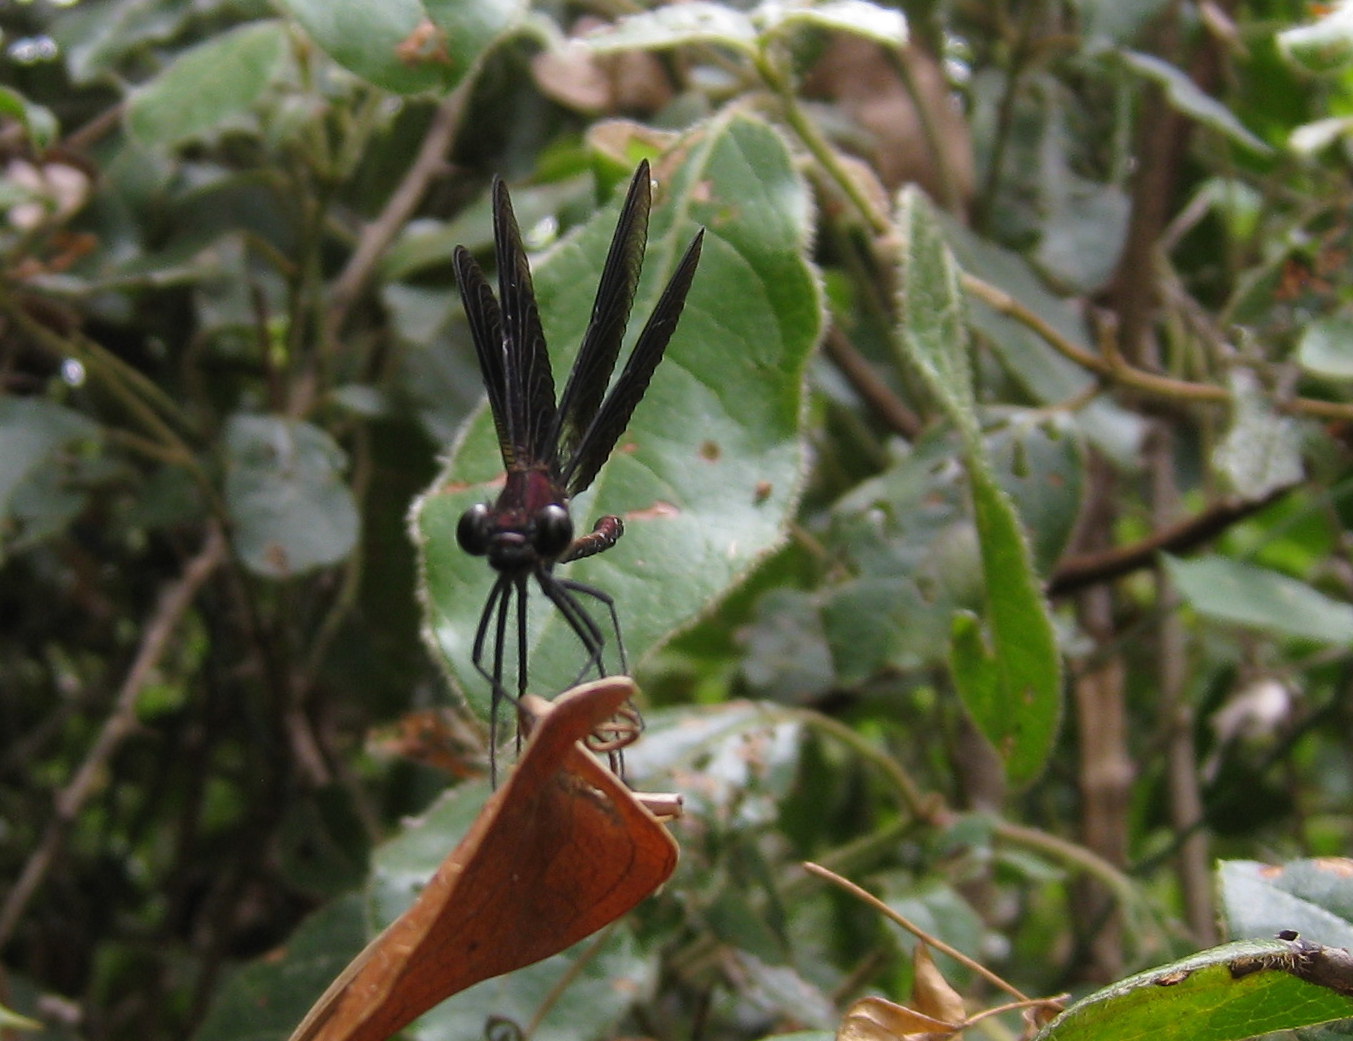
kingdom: Animalia
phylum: Arthropoda
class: Insecta
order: Odonata
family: Calopterygidae
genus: Calopteryx
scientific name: Calopteryx haemorrhoidalis
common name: Copper demoiselle
